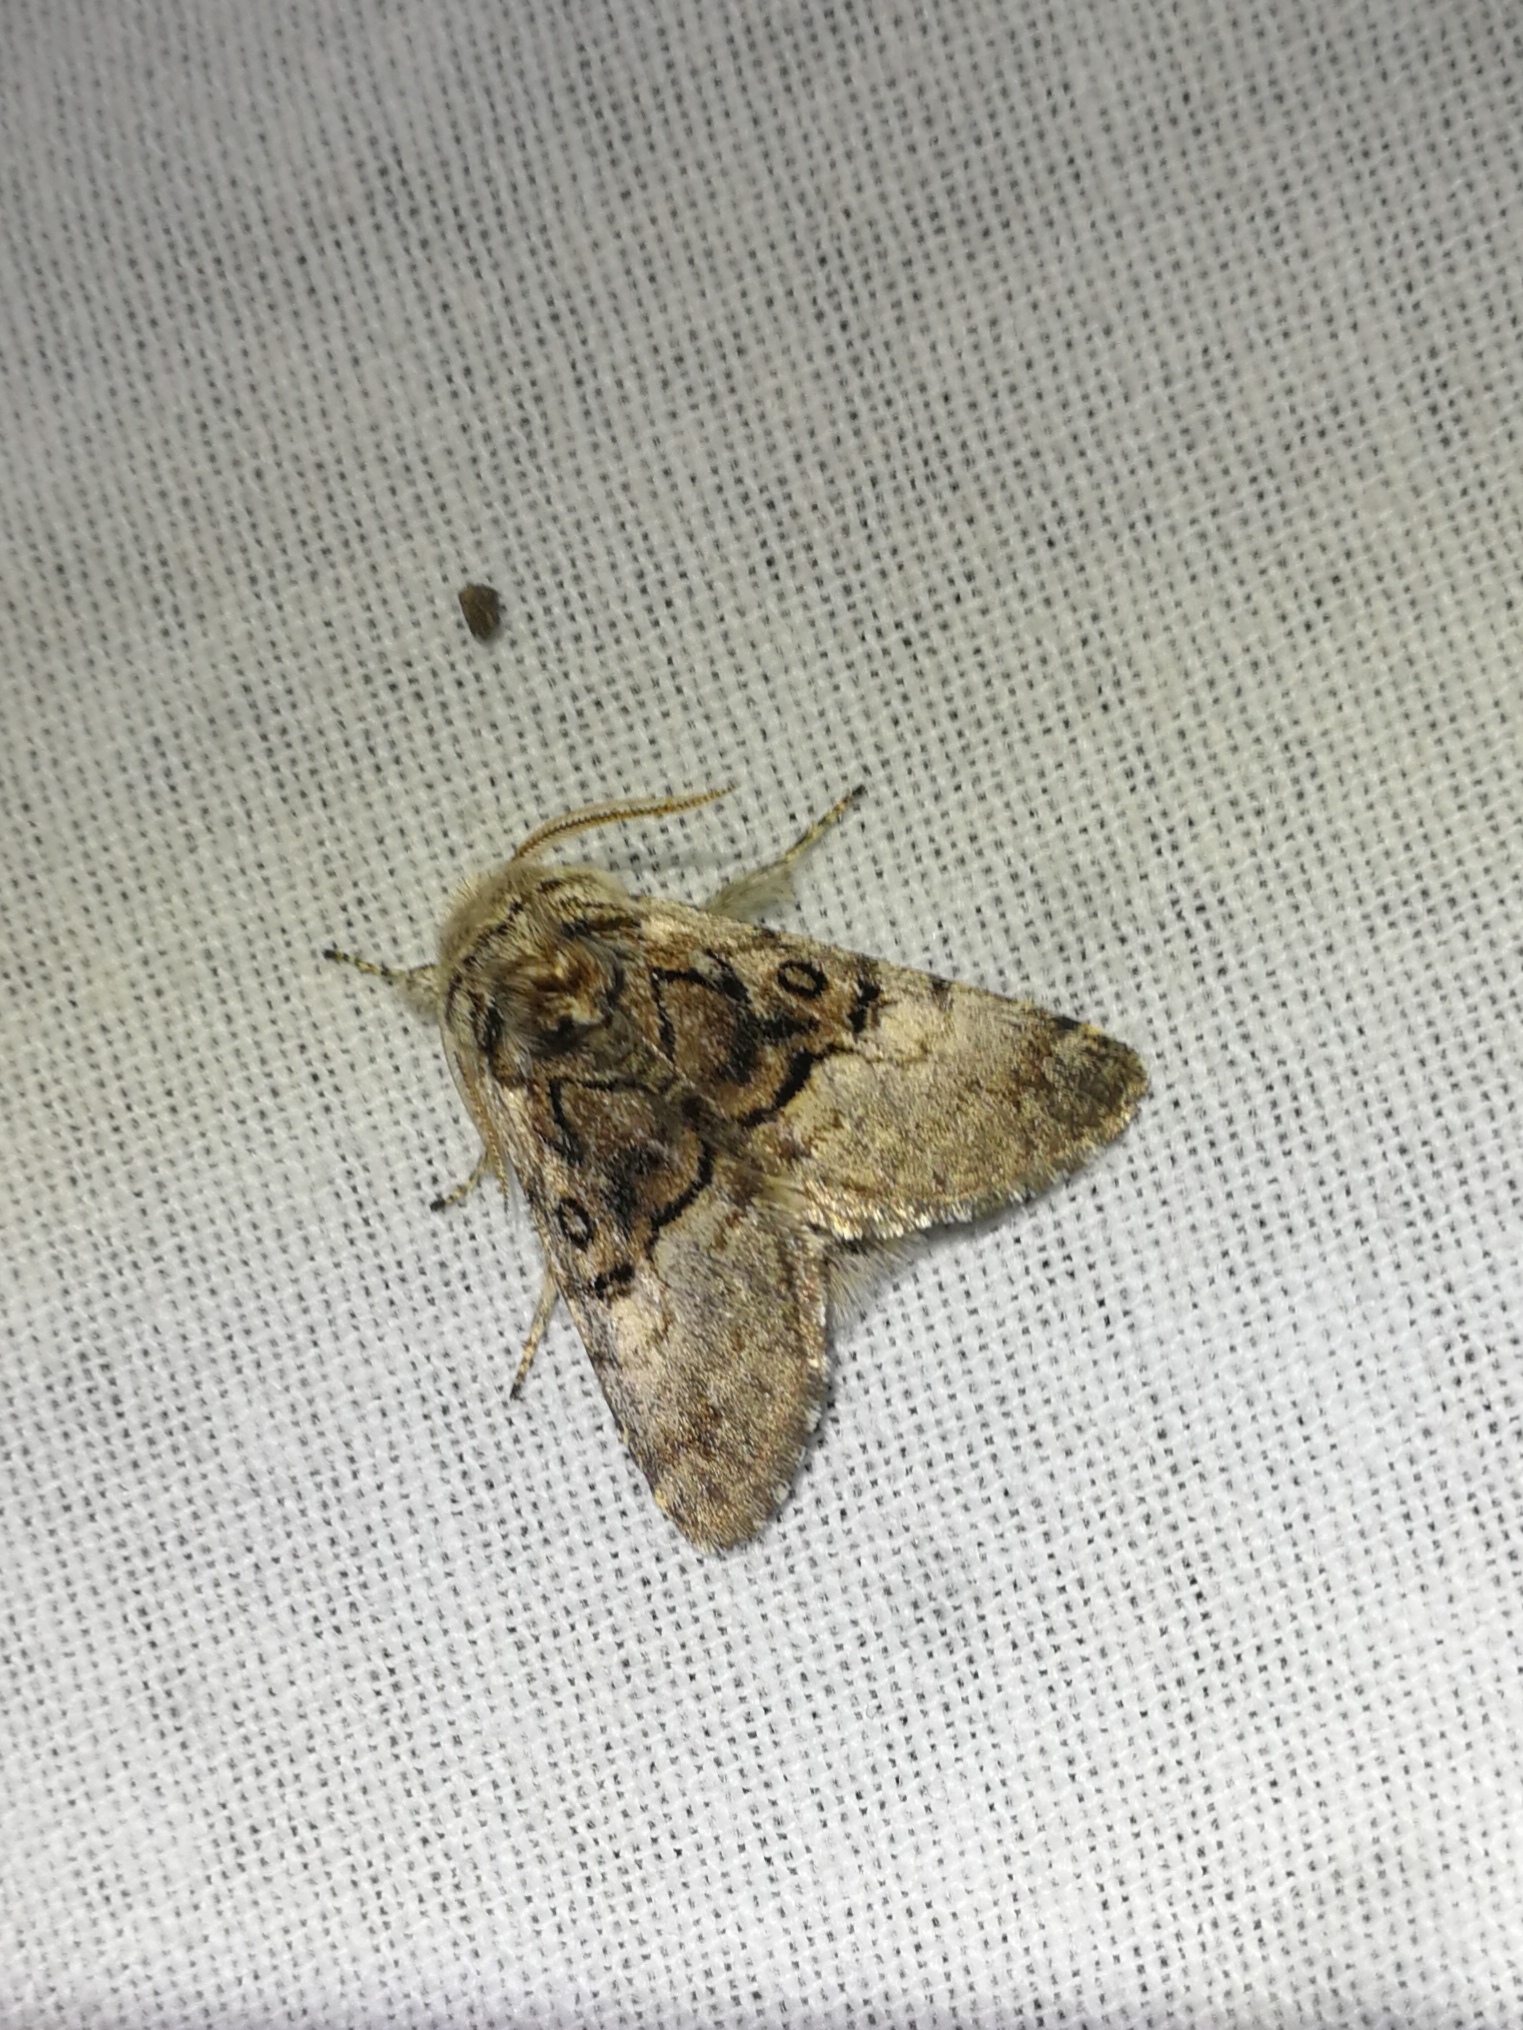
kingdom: Animalia
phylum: Arthropoda
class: Insecta
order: Lepidoptera
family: Noctuidae
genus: Colocasia
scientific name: Colocasia coryli
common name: Nut-tree tussock
